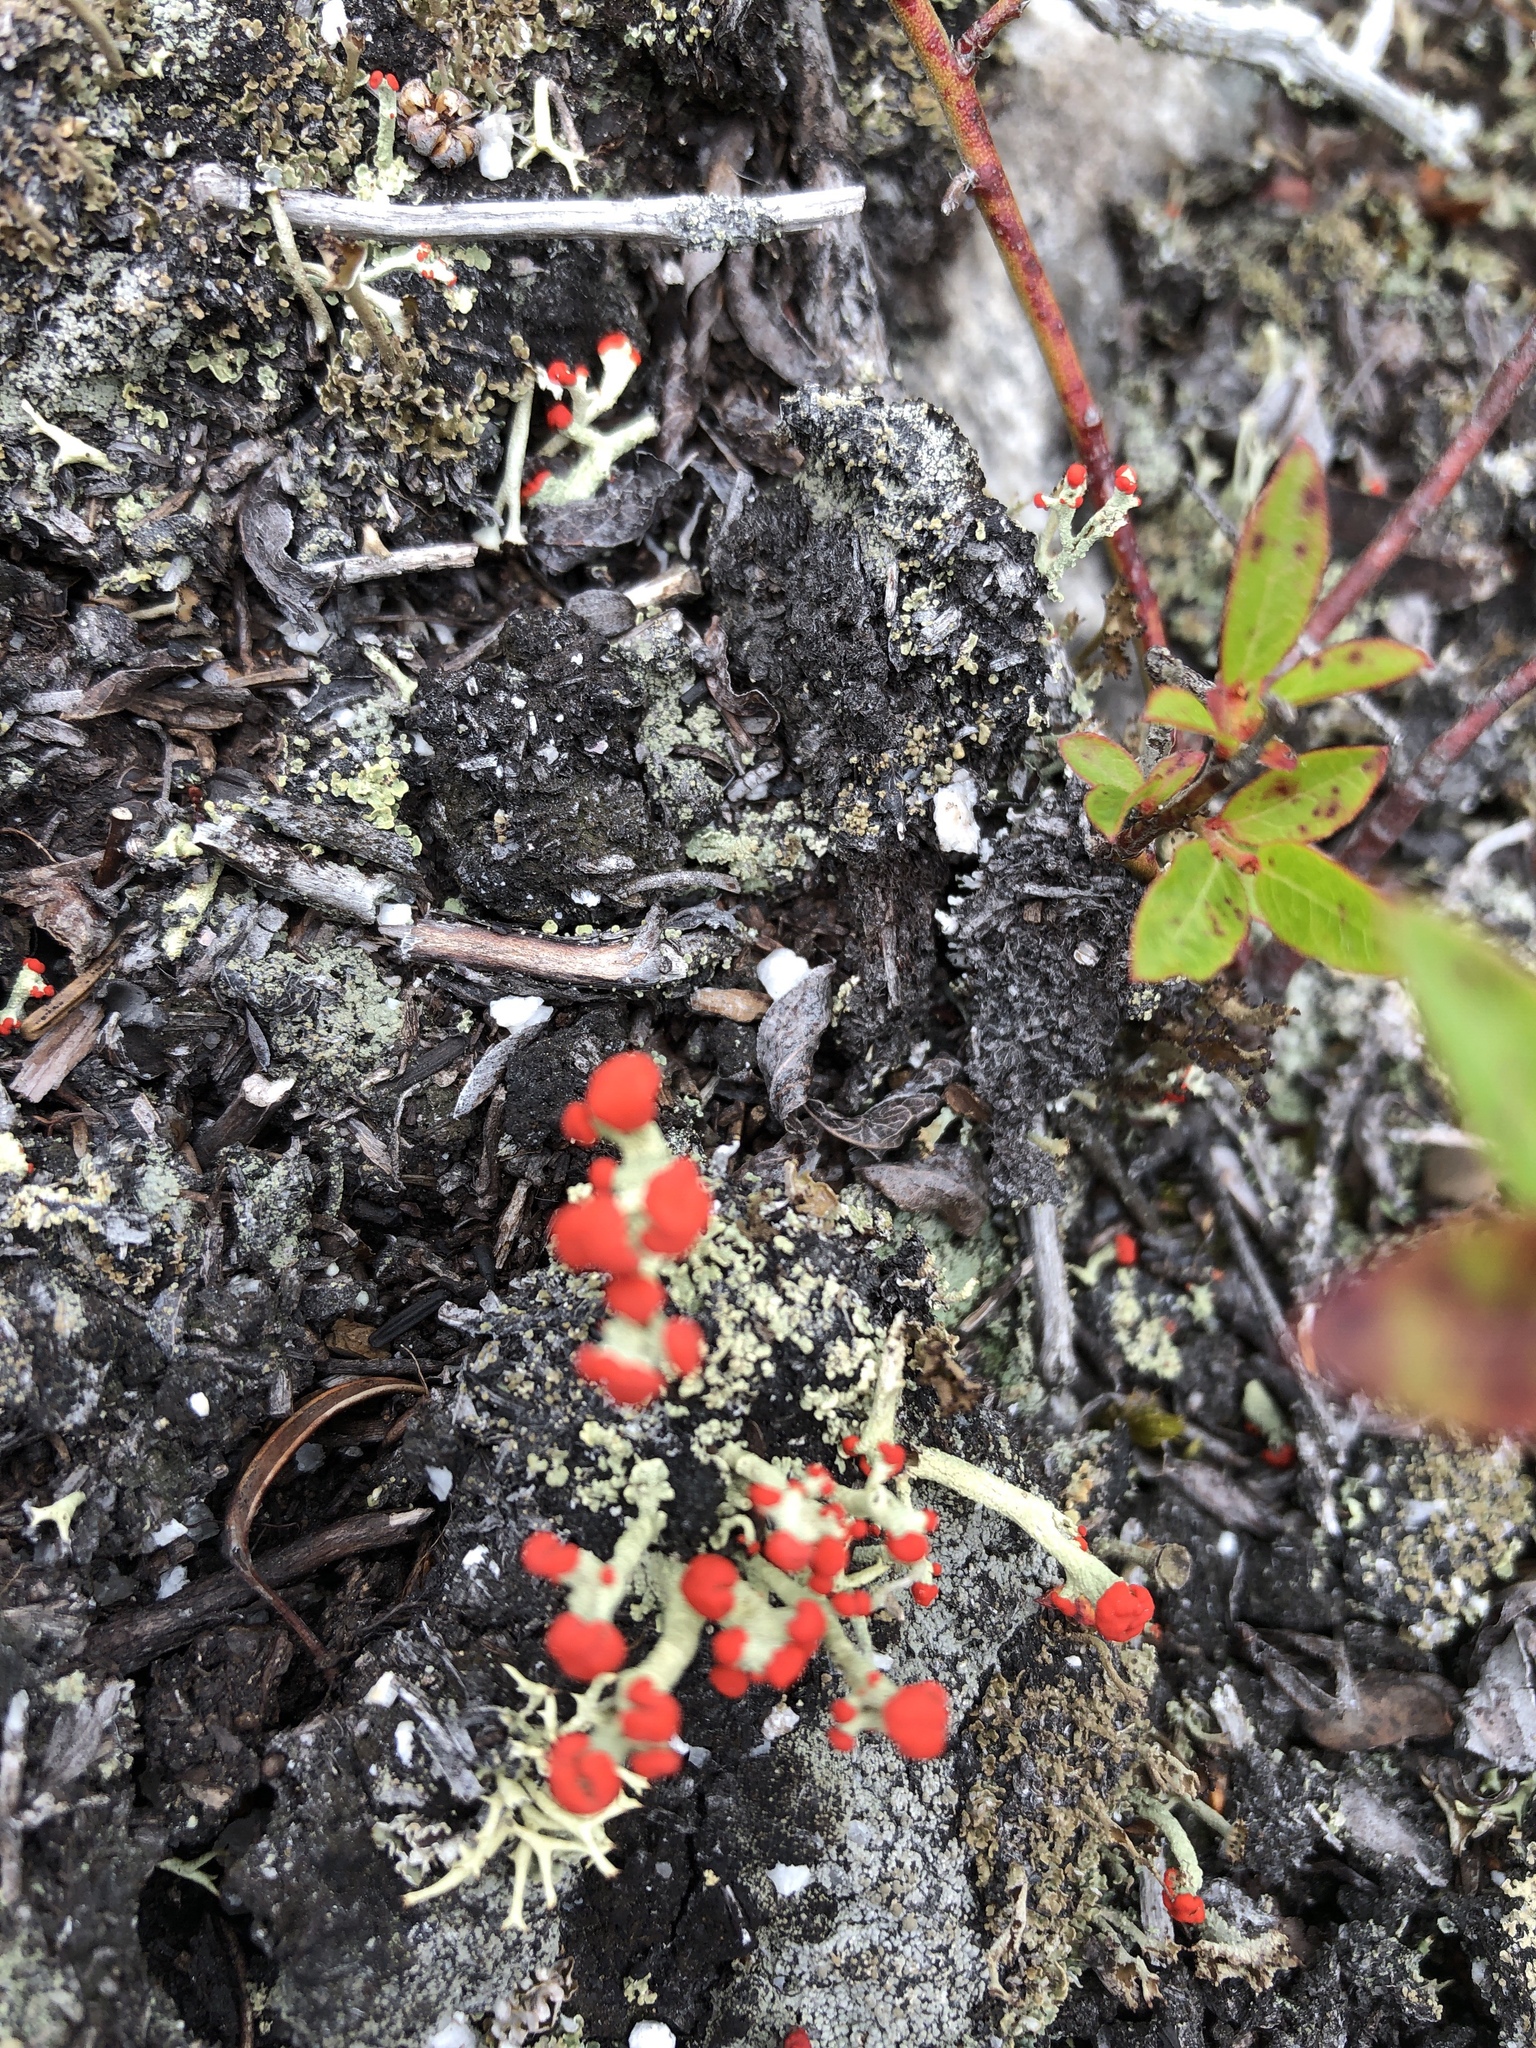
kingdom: Fungi
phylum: Ascomycota
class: Lecanoromycetes
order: Lecanorales
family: Cladoniaceae
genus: Cladonia
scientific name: Cladonia cristatella
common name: British soldier lichen
